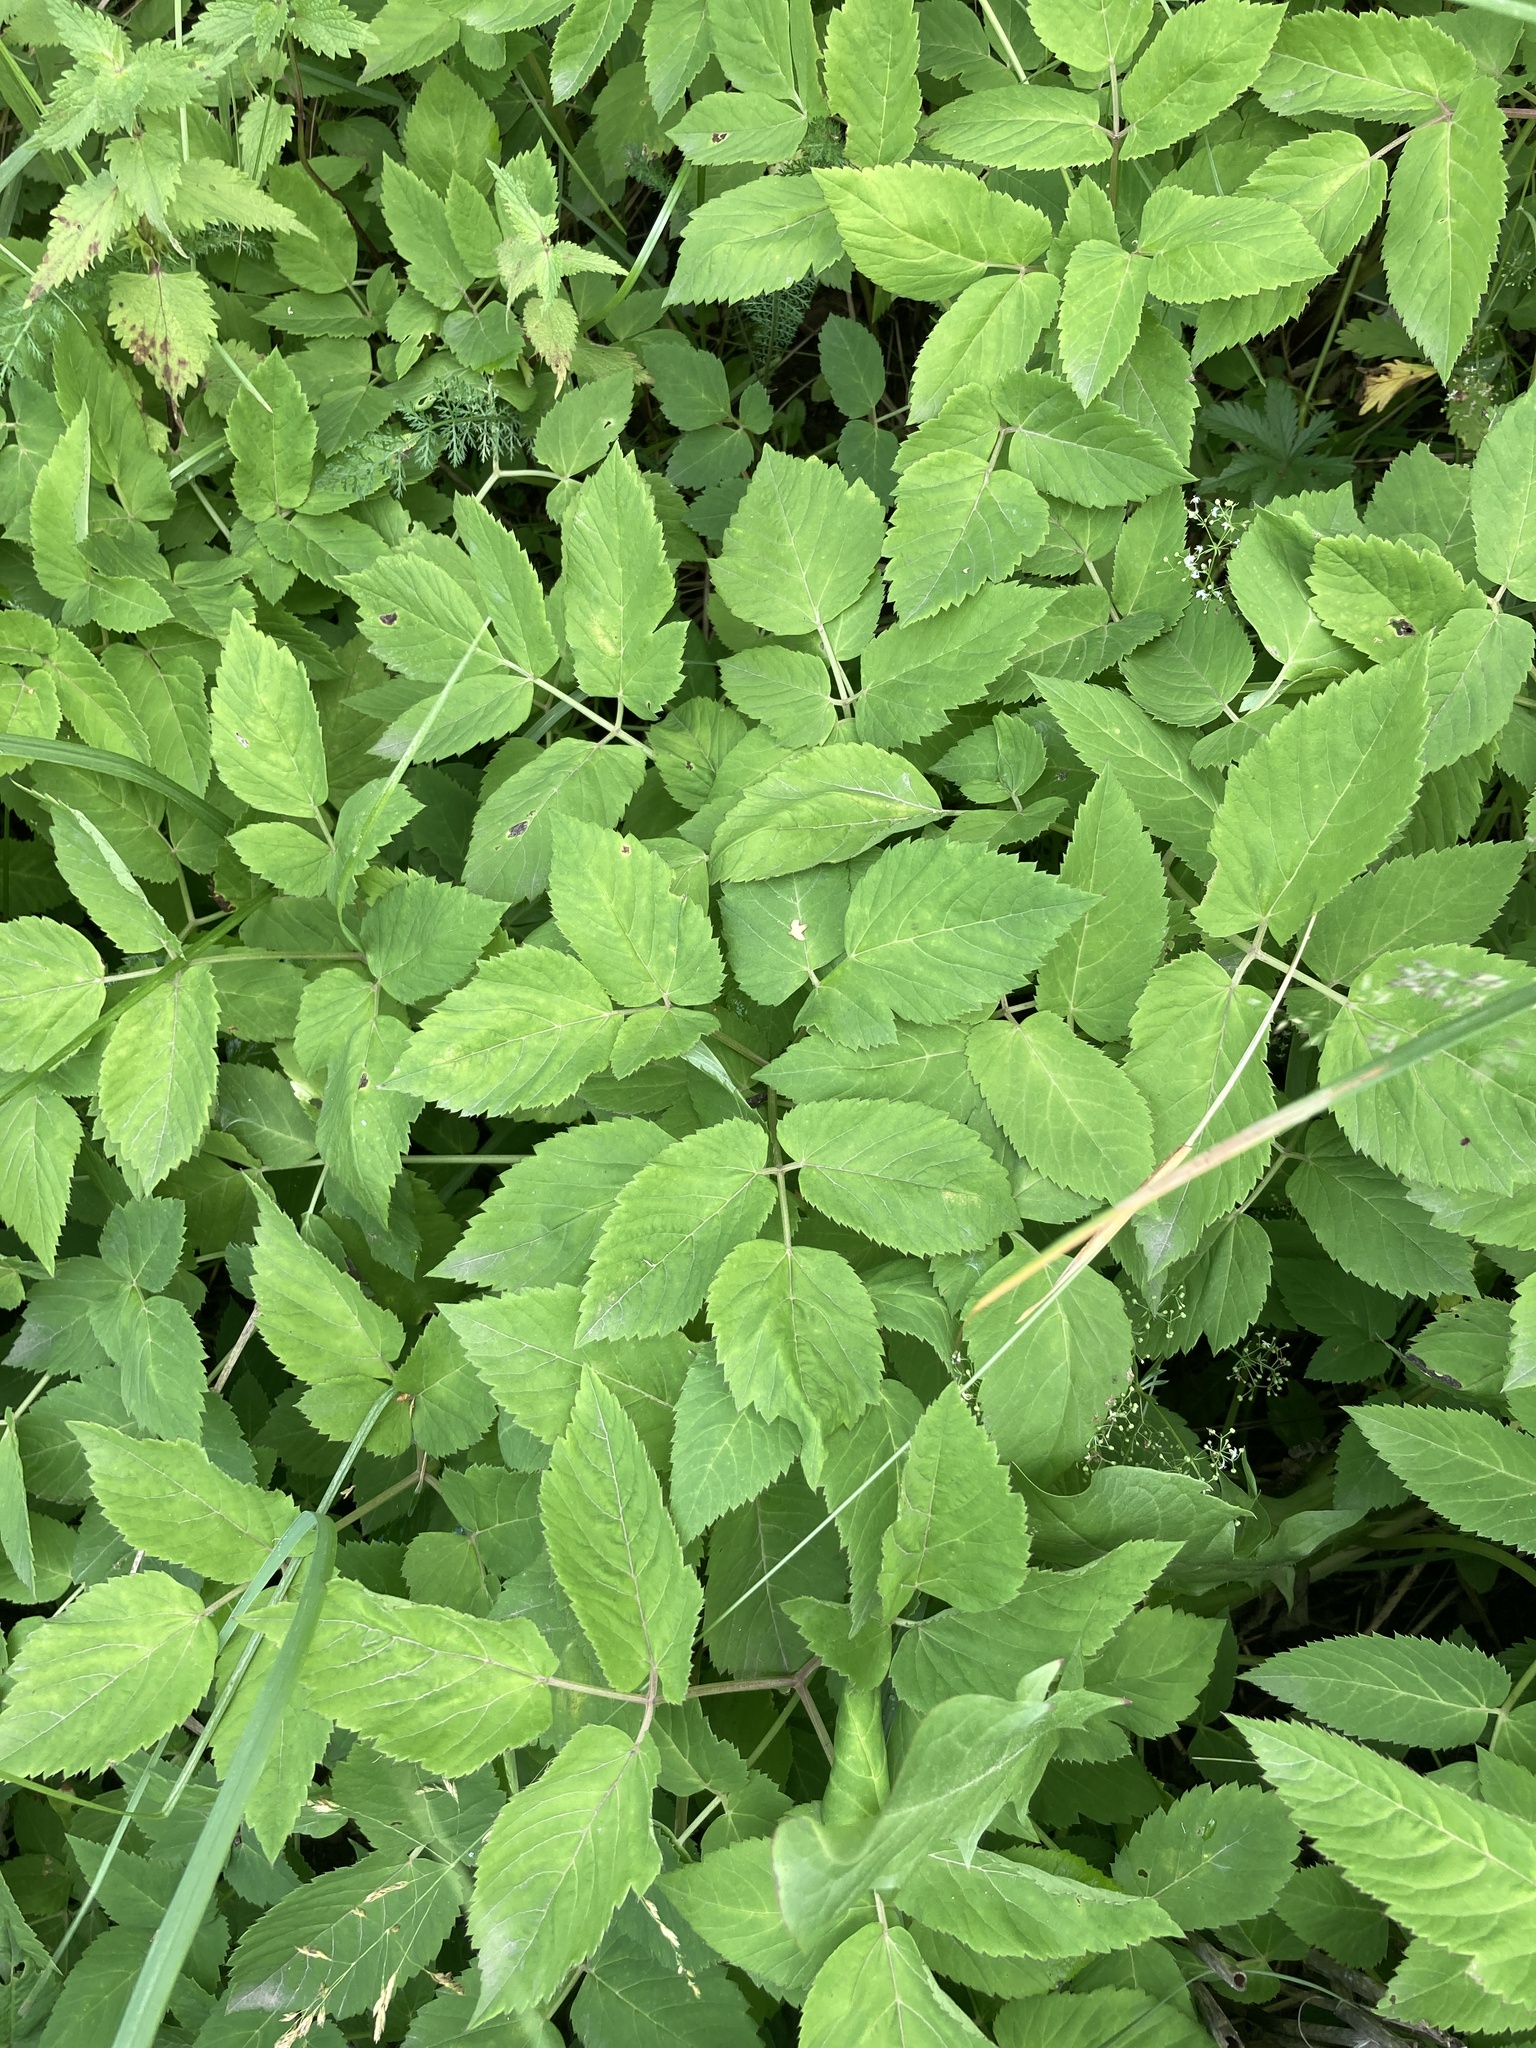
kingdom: Plantae
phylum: Tracheophyta
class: Magnoliopsida
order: Apiales
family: Apiaceae
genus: Aegopodium
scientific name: Aegopodium podagraria
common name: Ground-elder
